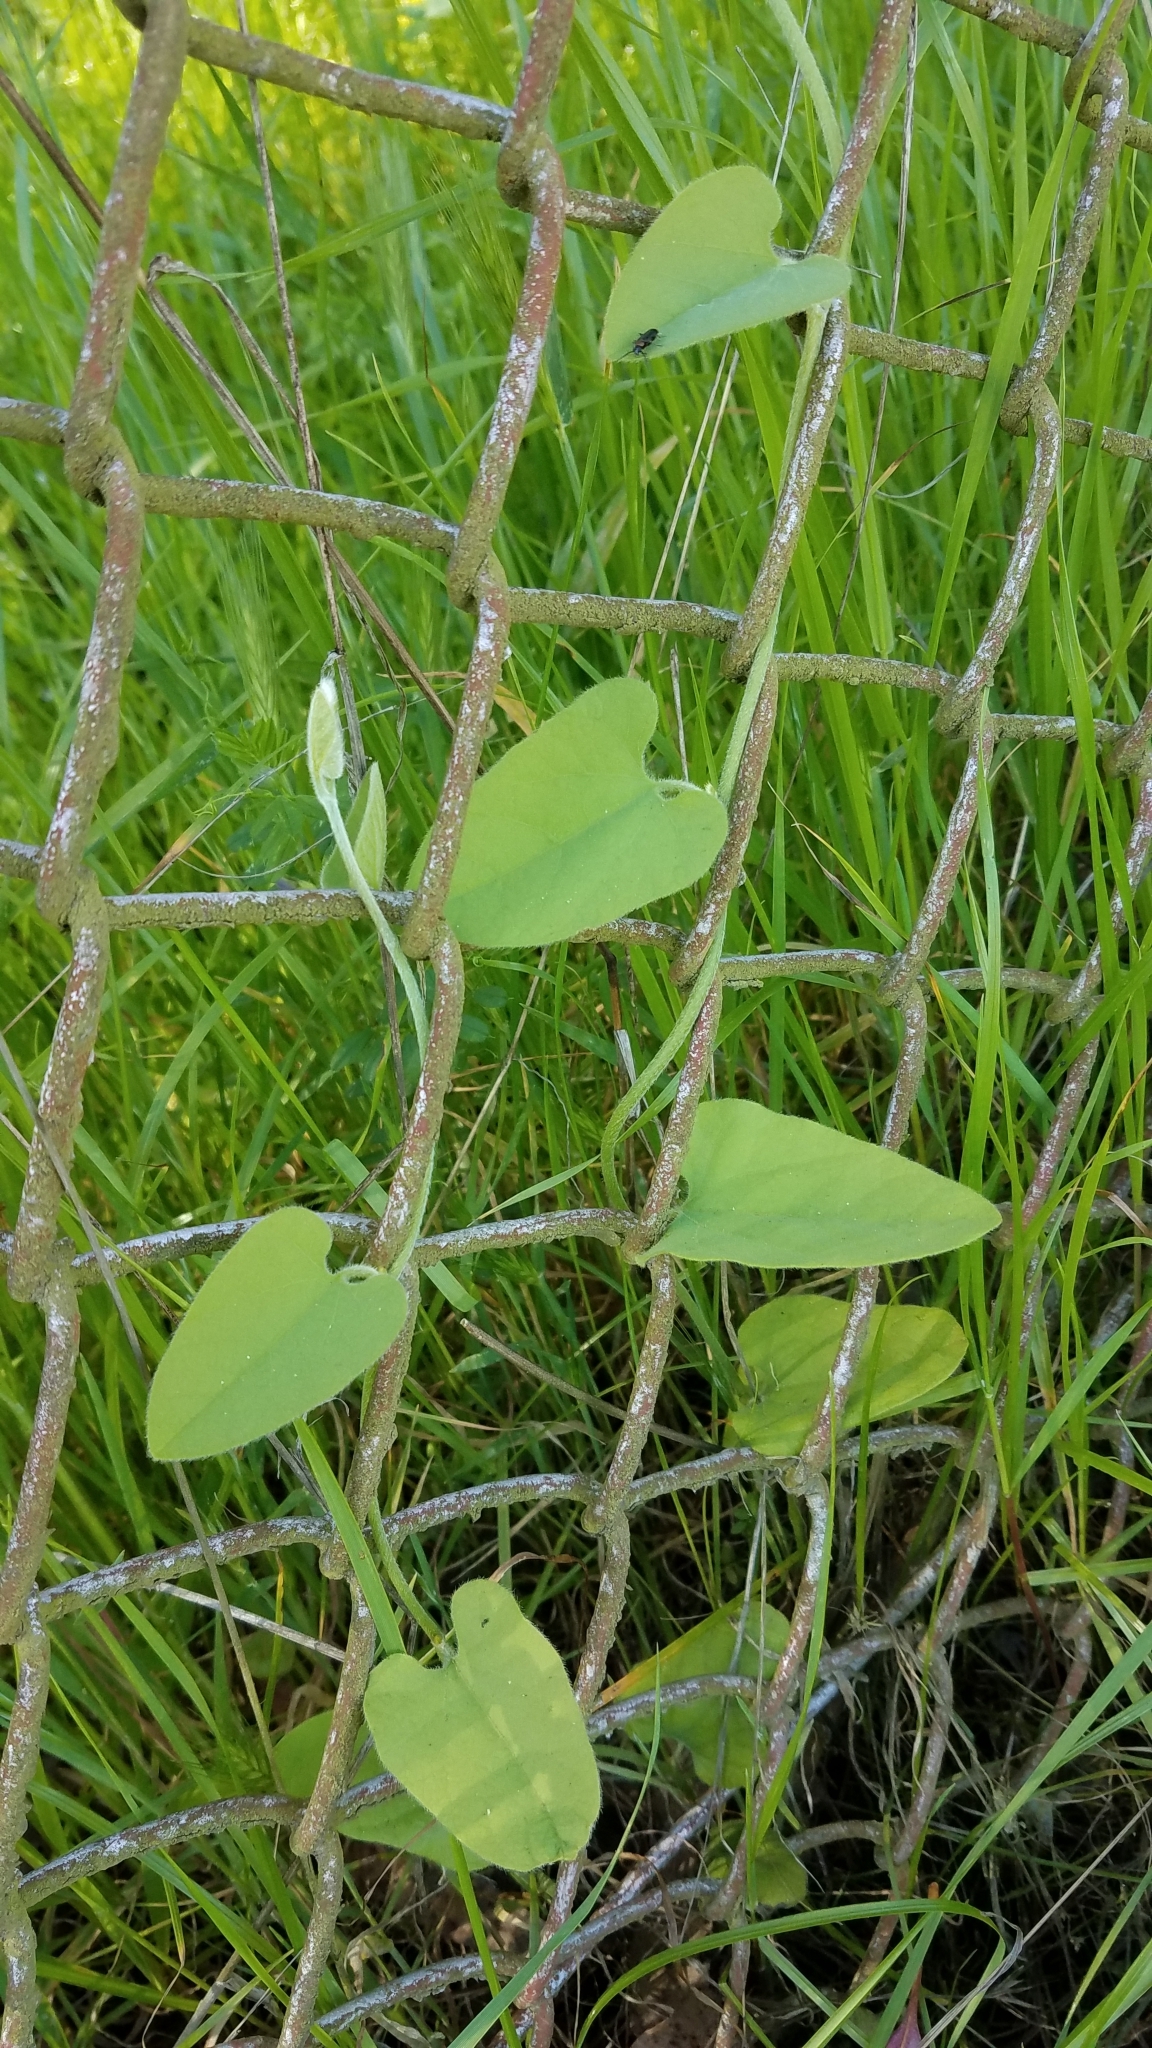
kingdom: Plantae
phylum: Tracheophyta
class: Magnoliopsida
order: Piperales
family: Aristolochiaceae
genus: Isotrema
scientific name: Isotrema californicum
